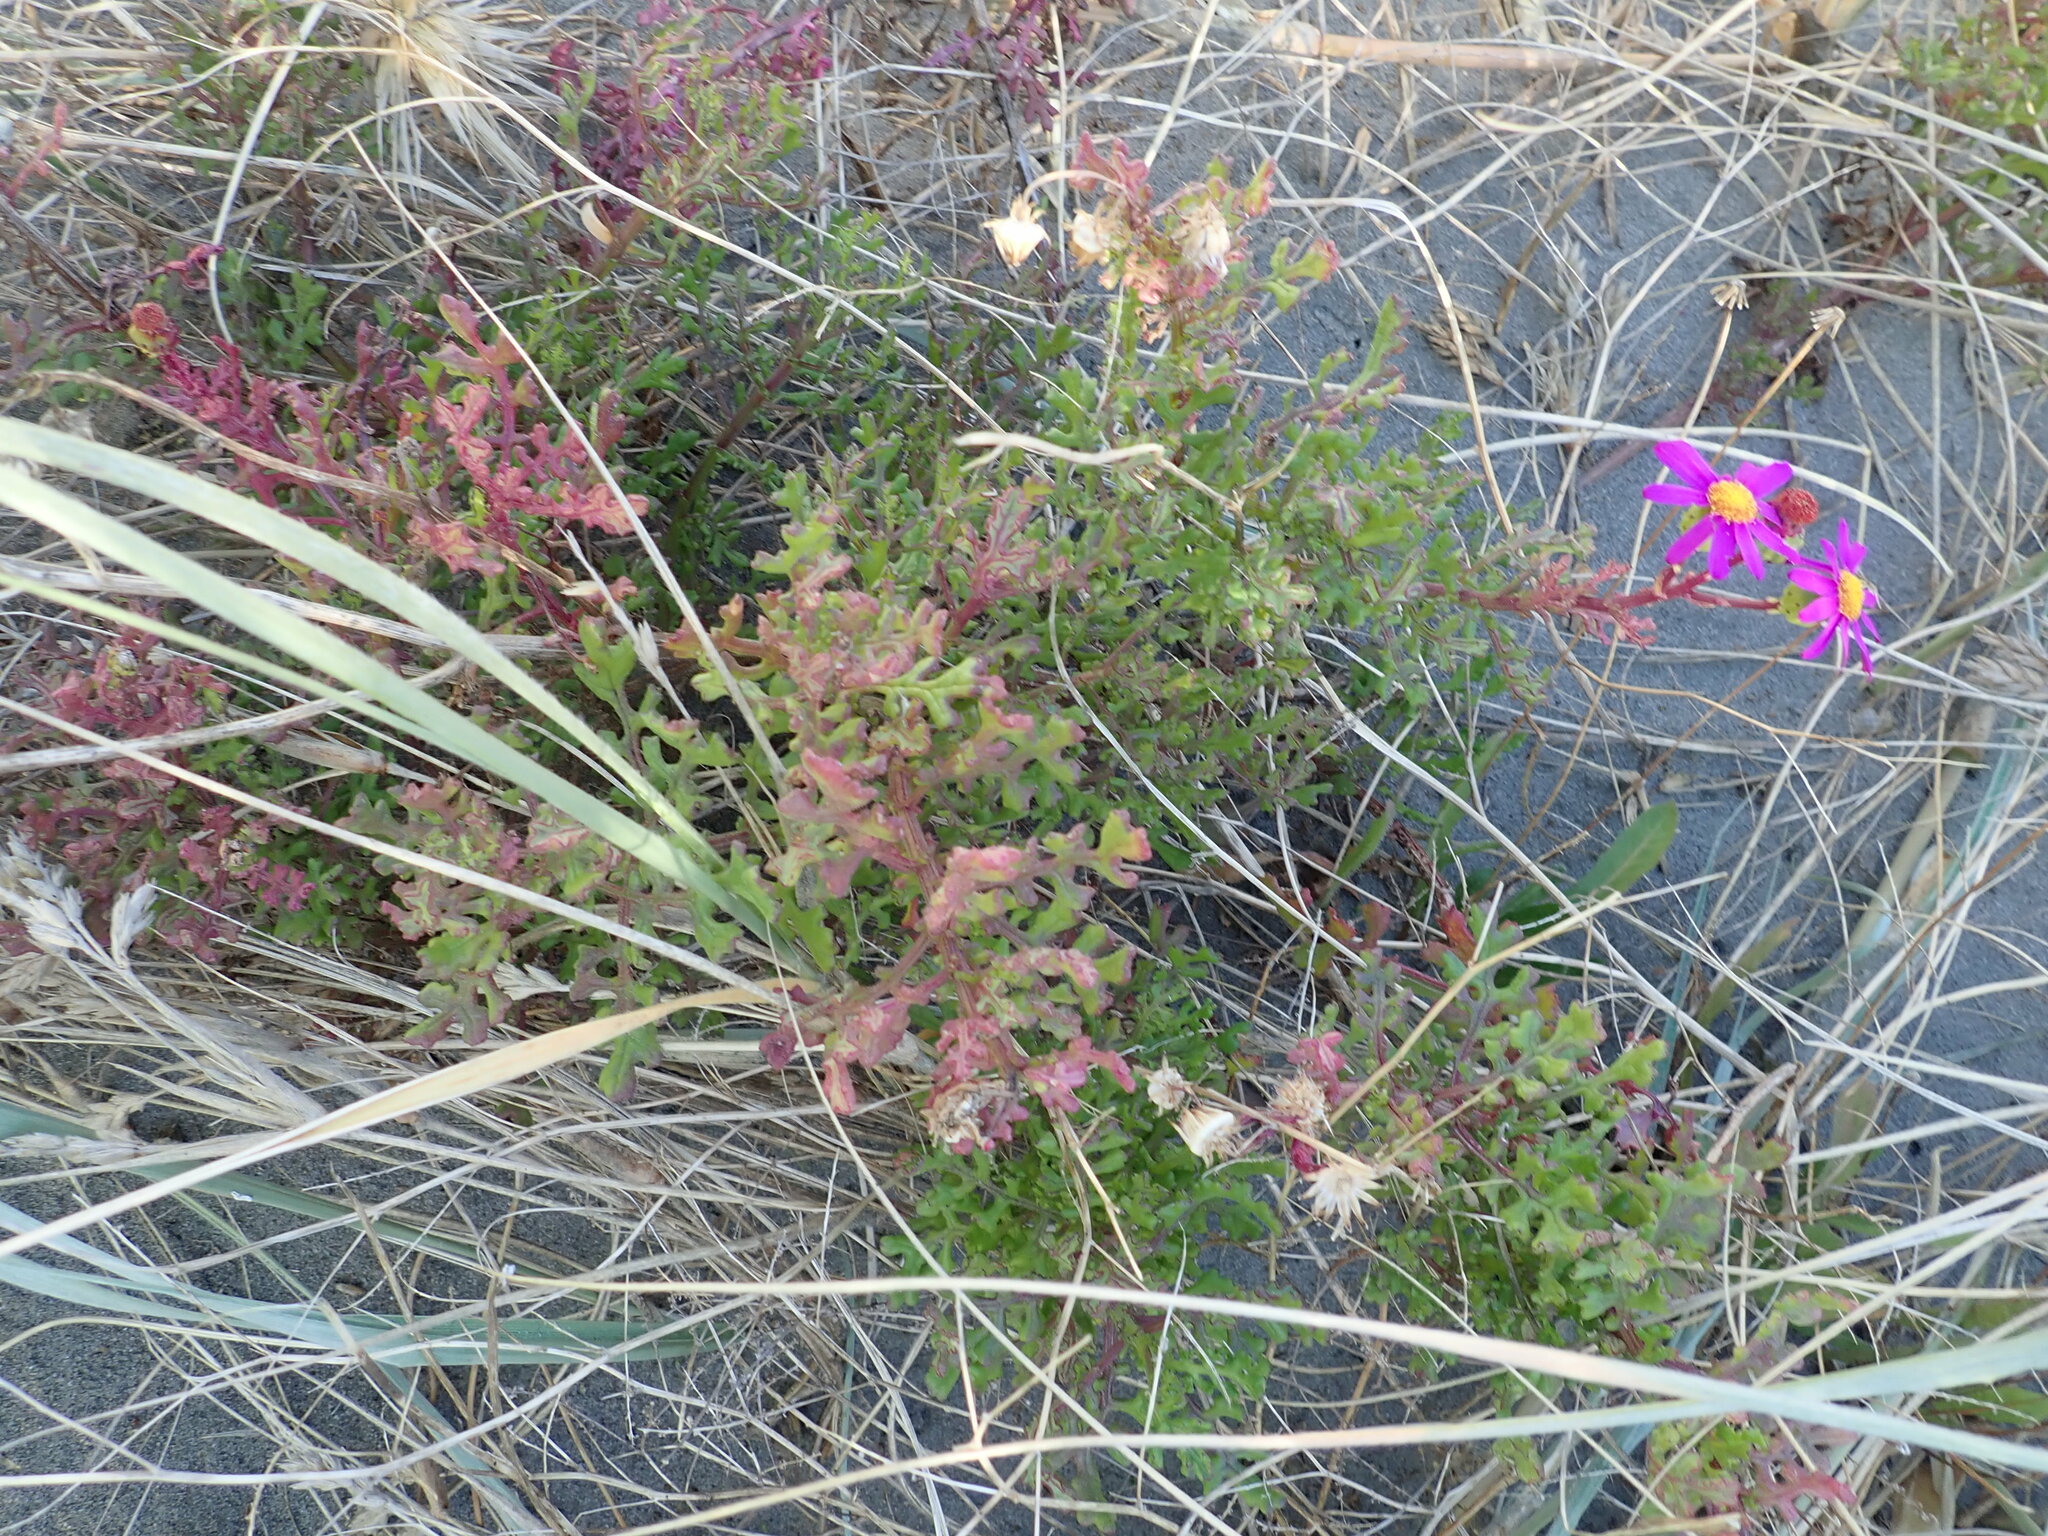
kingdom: Plantae
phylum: Tracheophyta
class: Magnoliopsida
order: Asterales
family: Asteraceae
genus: Senecio
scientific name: Senecio elegans
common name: Purple groundsel
